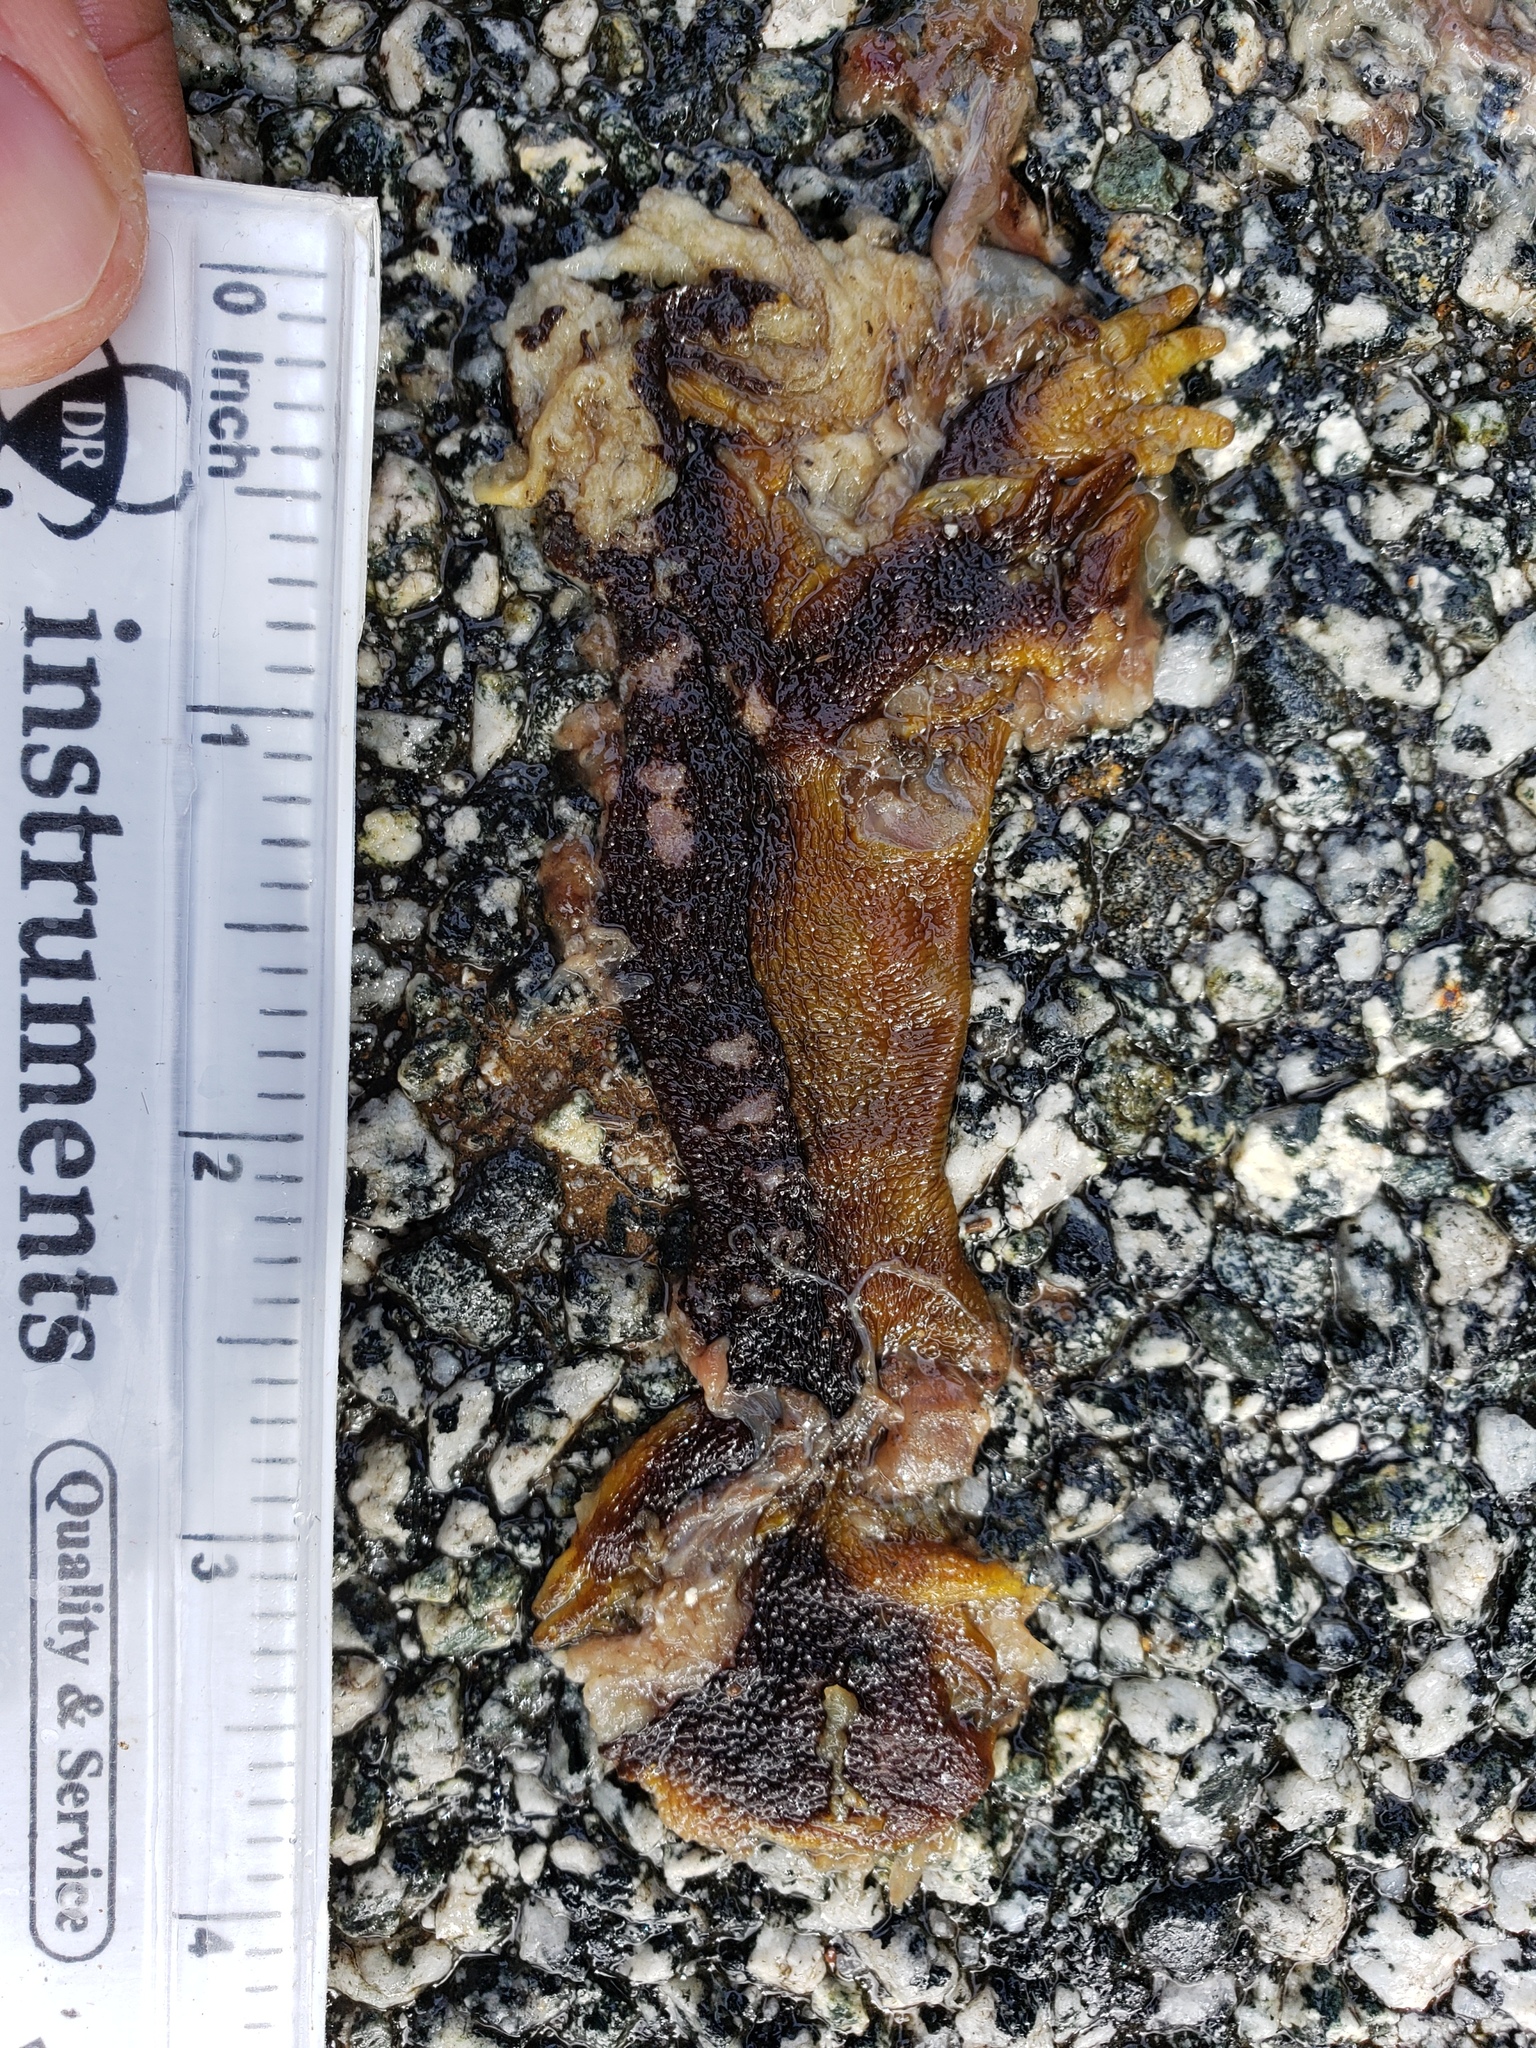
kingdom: Animalia
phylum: Chordata
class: Amphibia
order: Caudata
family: Salamandridae
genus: Taricha
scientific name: Taricha
